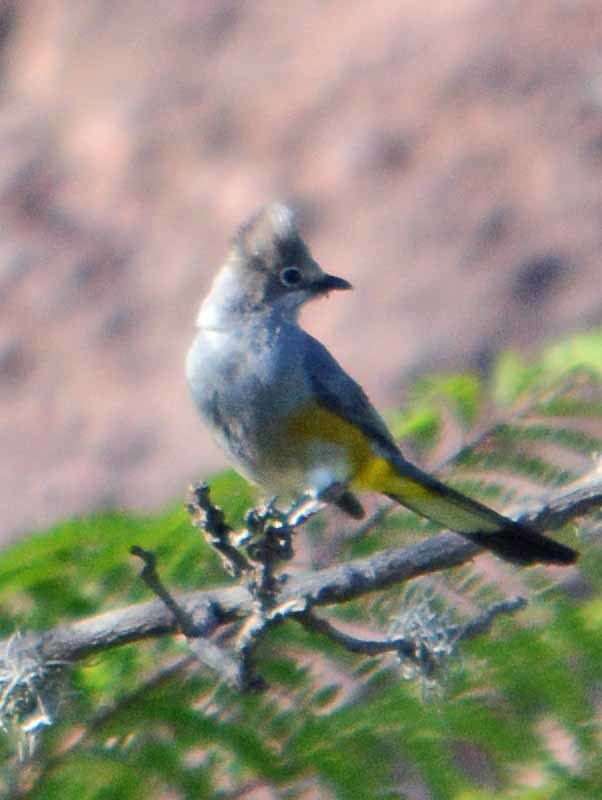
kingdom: Animalia
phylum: Chordata
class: Aves
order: Passeriformes
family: Ptilogonatidae
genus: Ptilogonys
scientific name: Ptilogonys cinereus
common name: Gray silky-flycatcher
